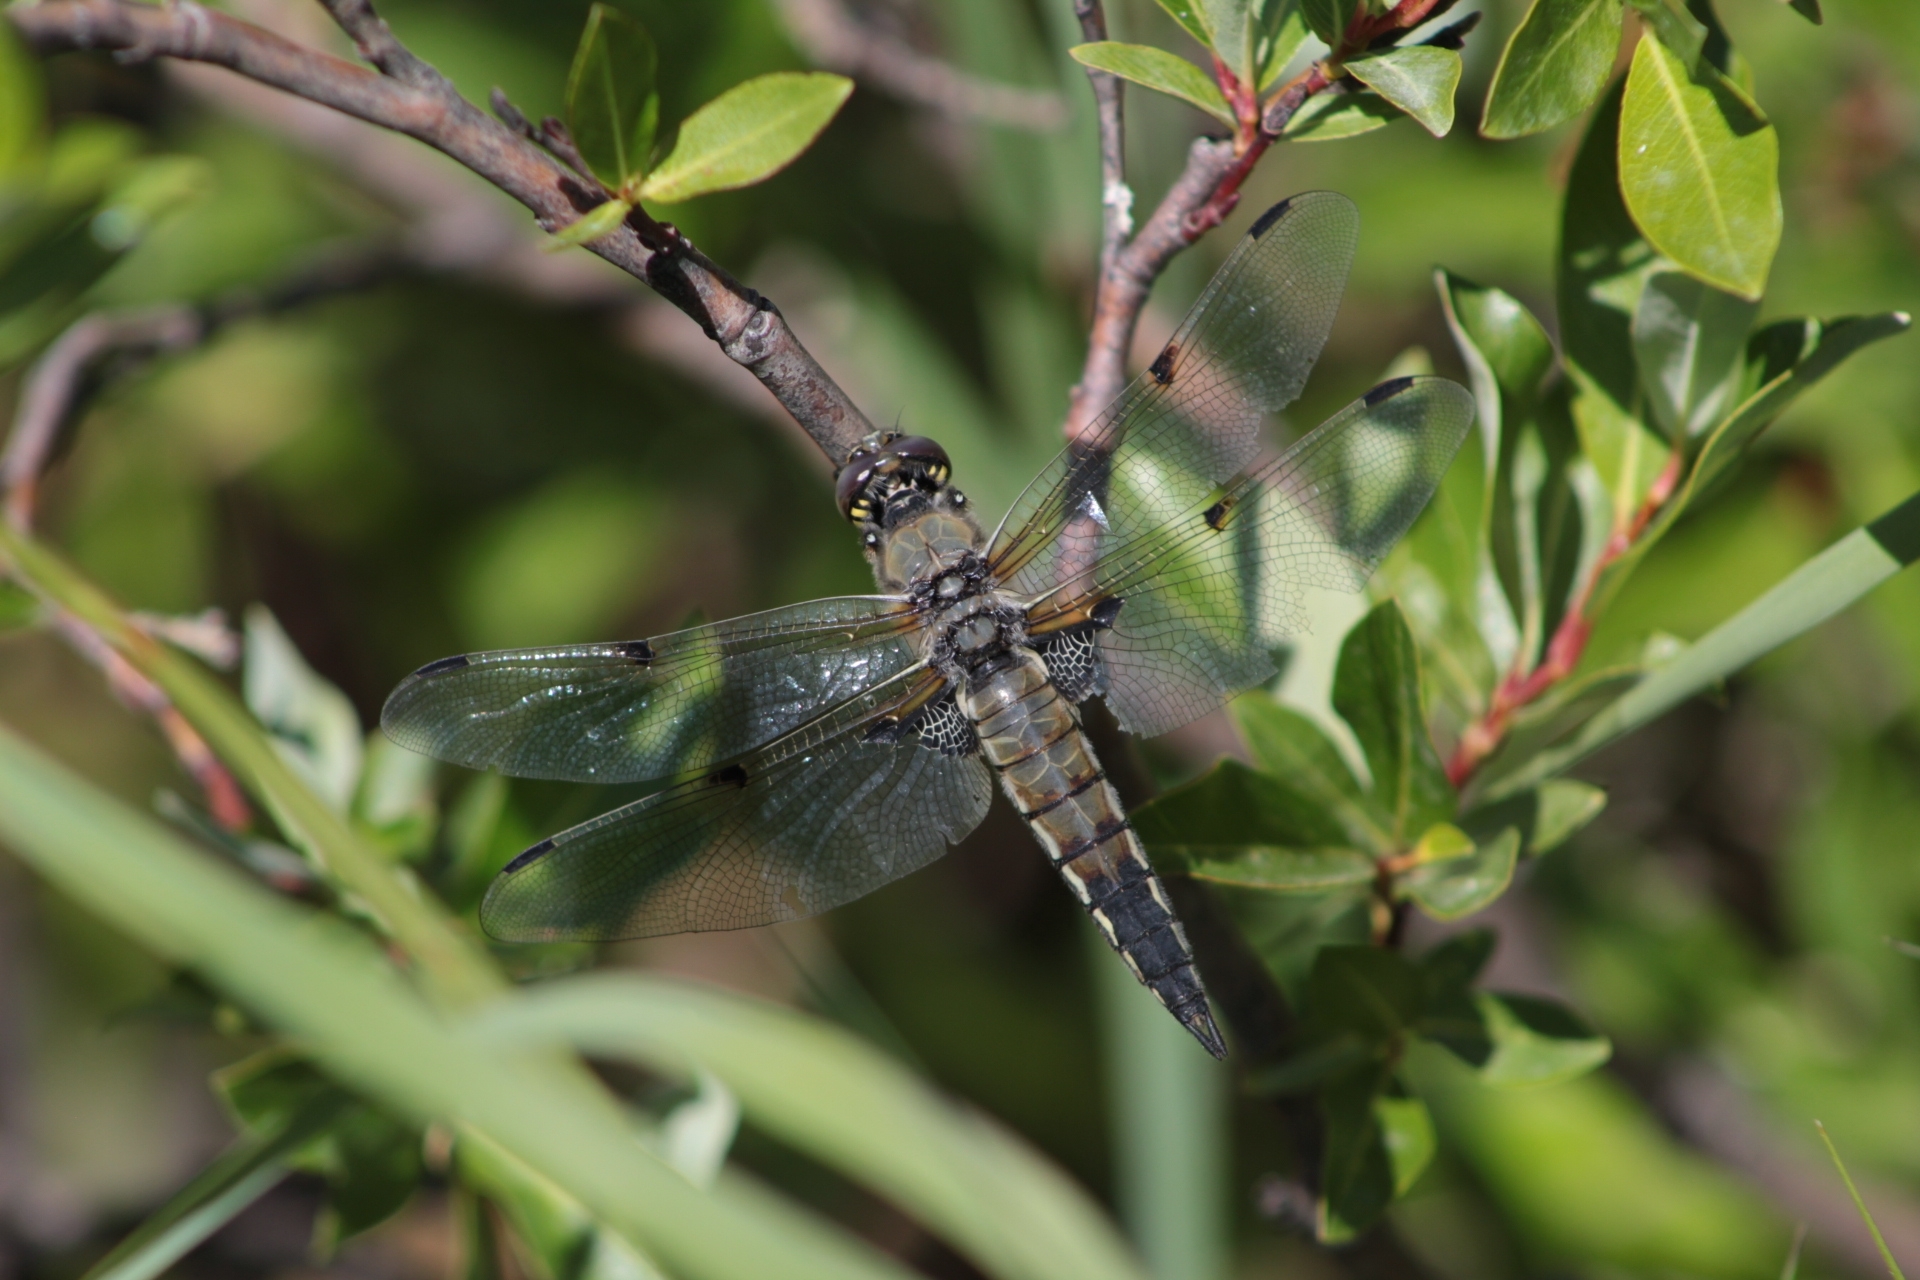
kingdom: Animalia
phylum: Arthropoda
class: Insecta
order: Odonata
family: Libellulidae
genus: Libellula
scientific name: Libellula quadrimaculata
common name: Four-spotted chaser
